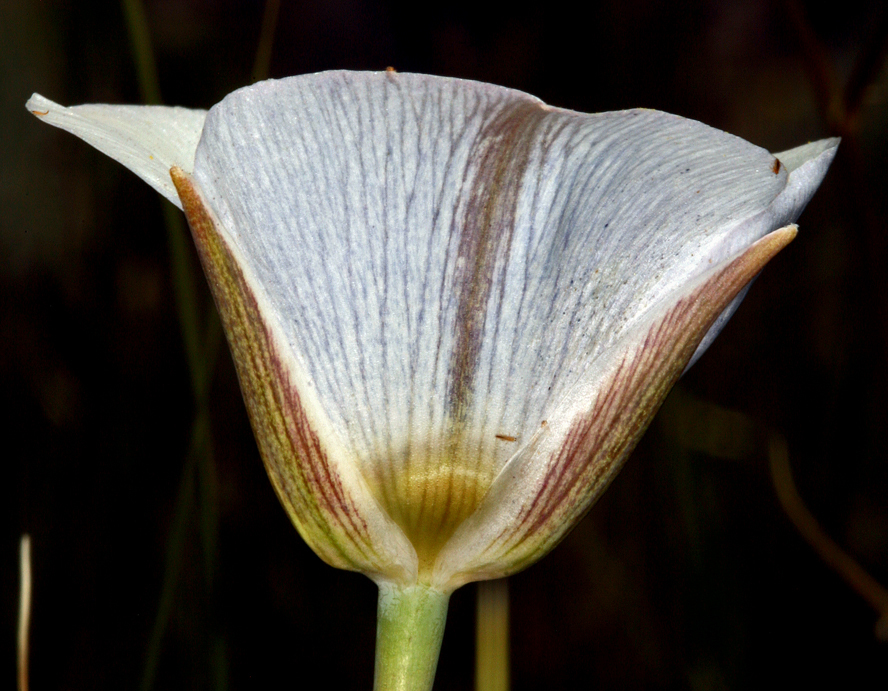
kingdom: Plantae
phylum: Tracheophyta
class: Liliopsida
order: Liliales
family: Liliaceae
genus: Calochortus
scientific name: Calochortus excavatus
